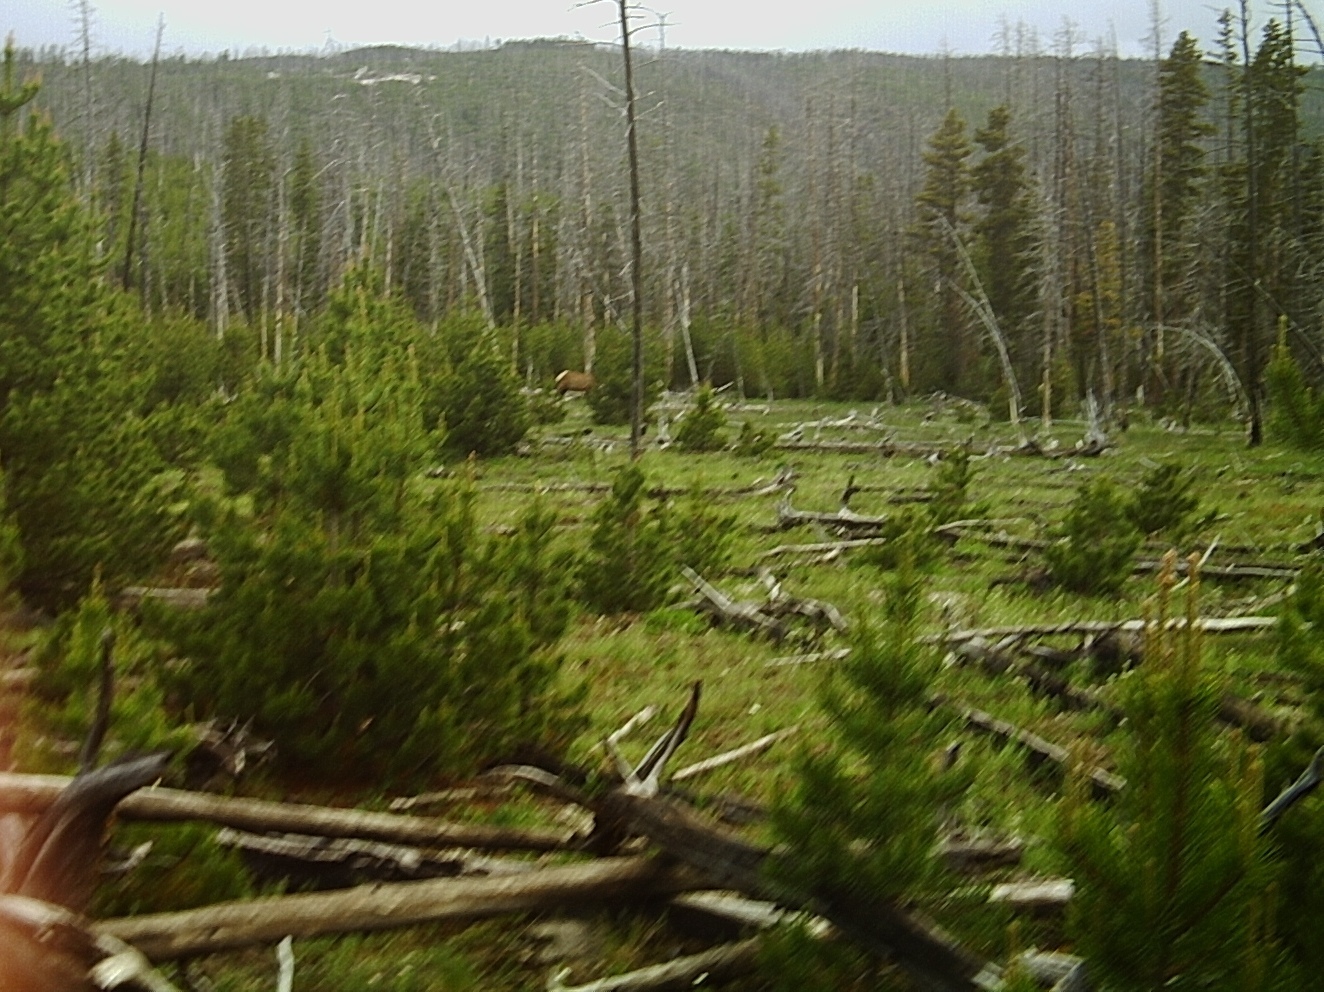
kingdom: Animalia
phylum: Chordata
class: Mammalia
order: Artiodactyla
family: Cervidae
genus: Cervus
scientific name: Cervus elaphus
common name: Red deer
